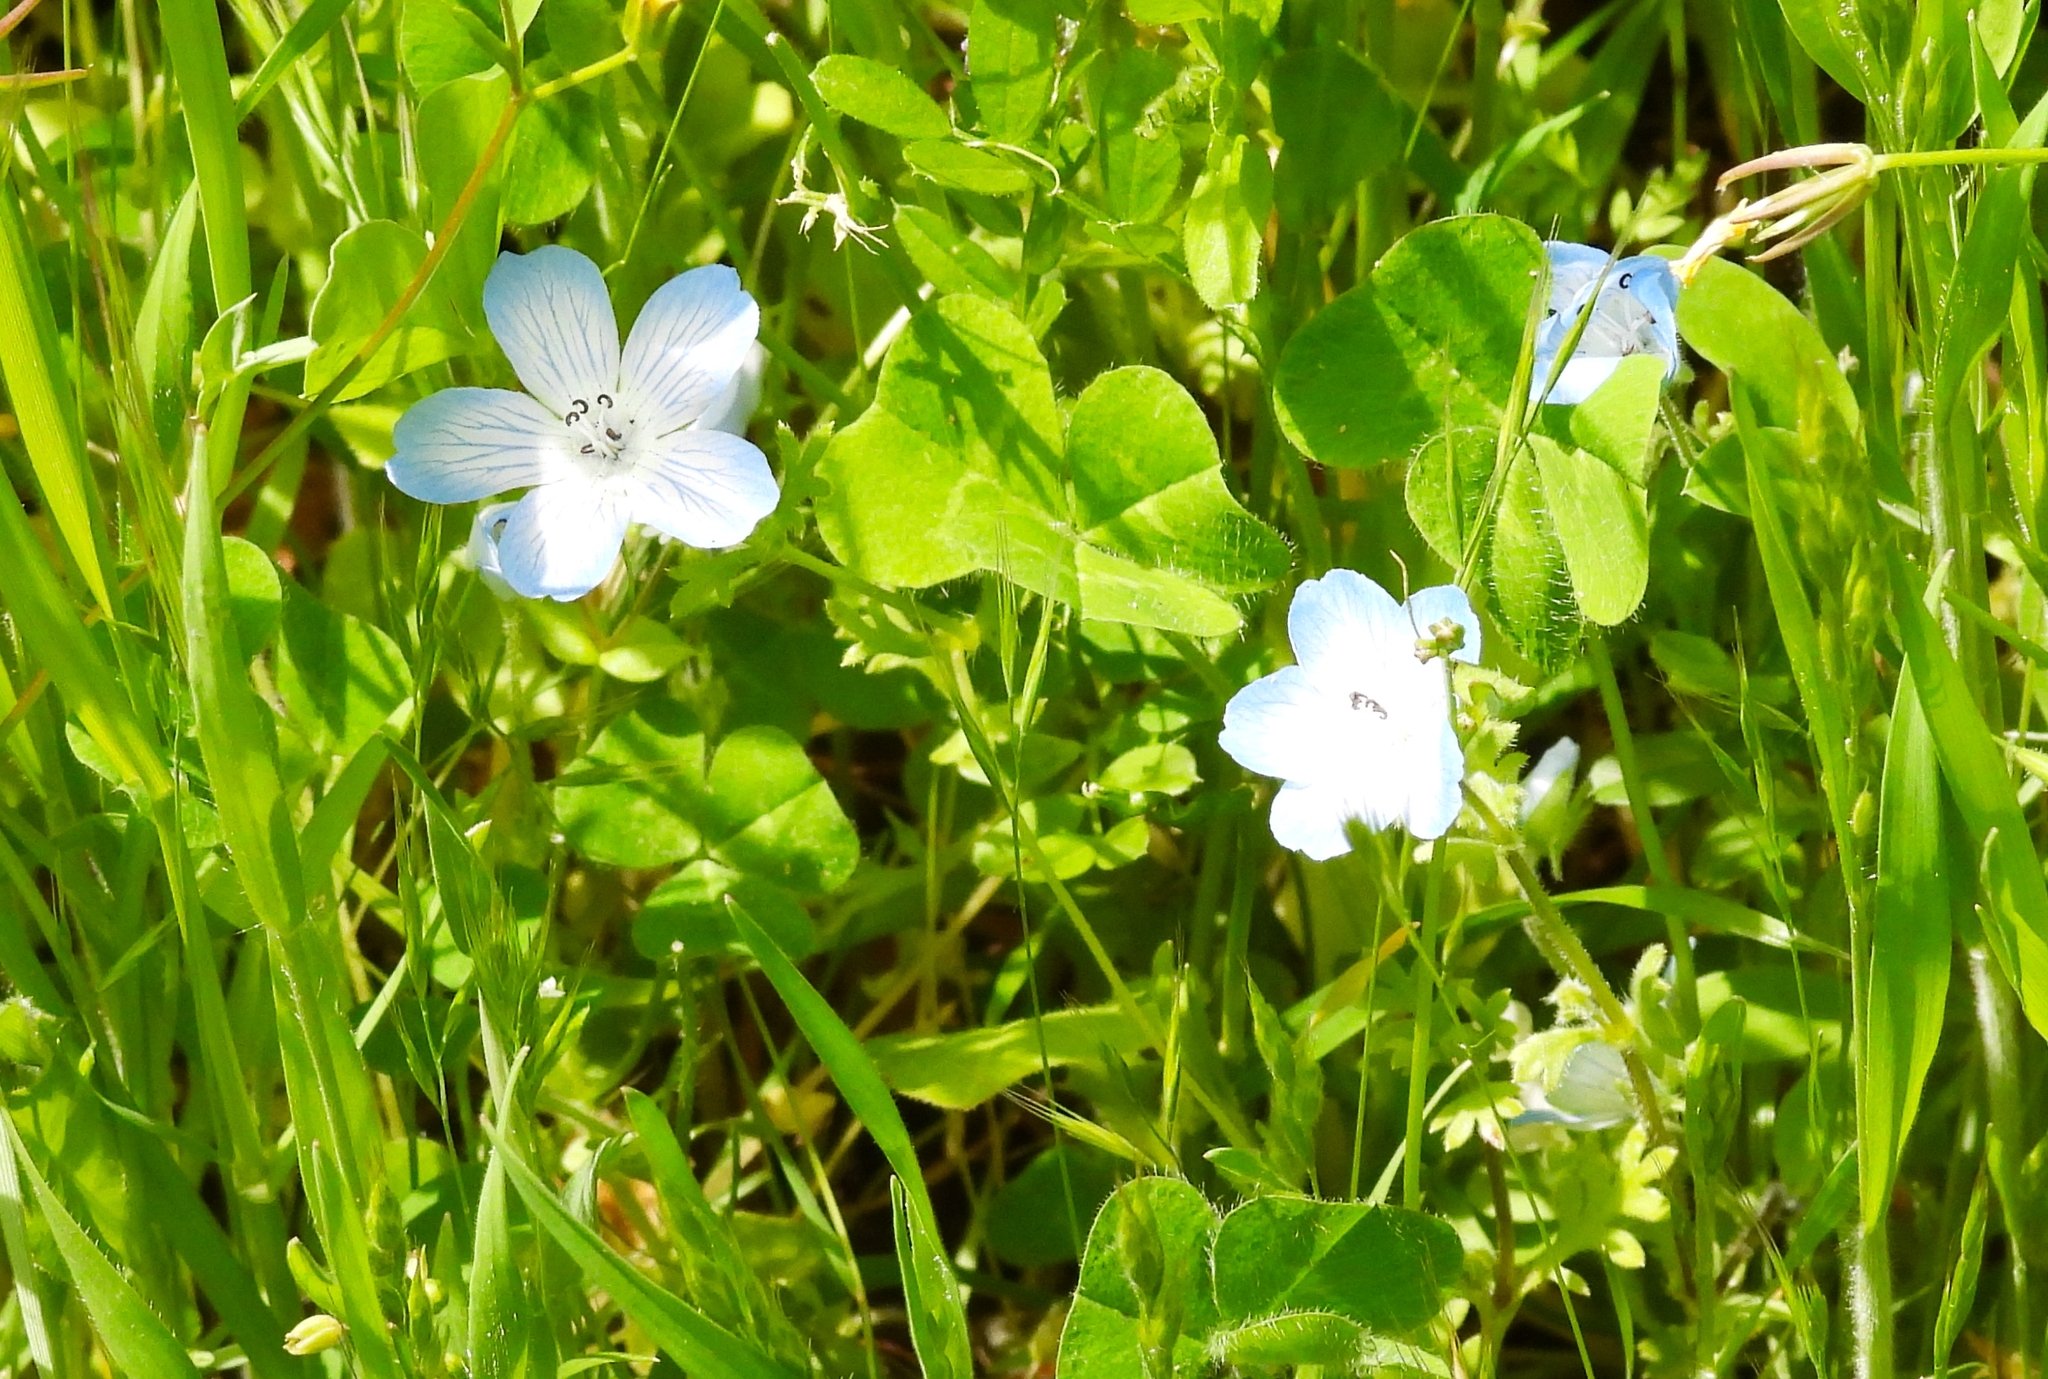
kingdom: Plantae
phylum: Tracheophyta
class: Magnoliopsida
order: Boraginales
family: Hydrophyllaceae
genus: Nemophila
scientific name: Nemophila menziesii
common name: Baby's-blue-eyes
